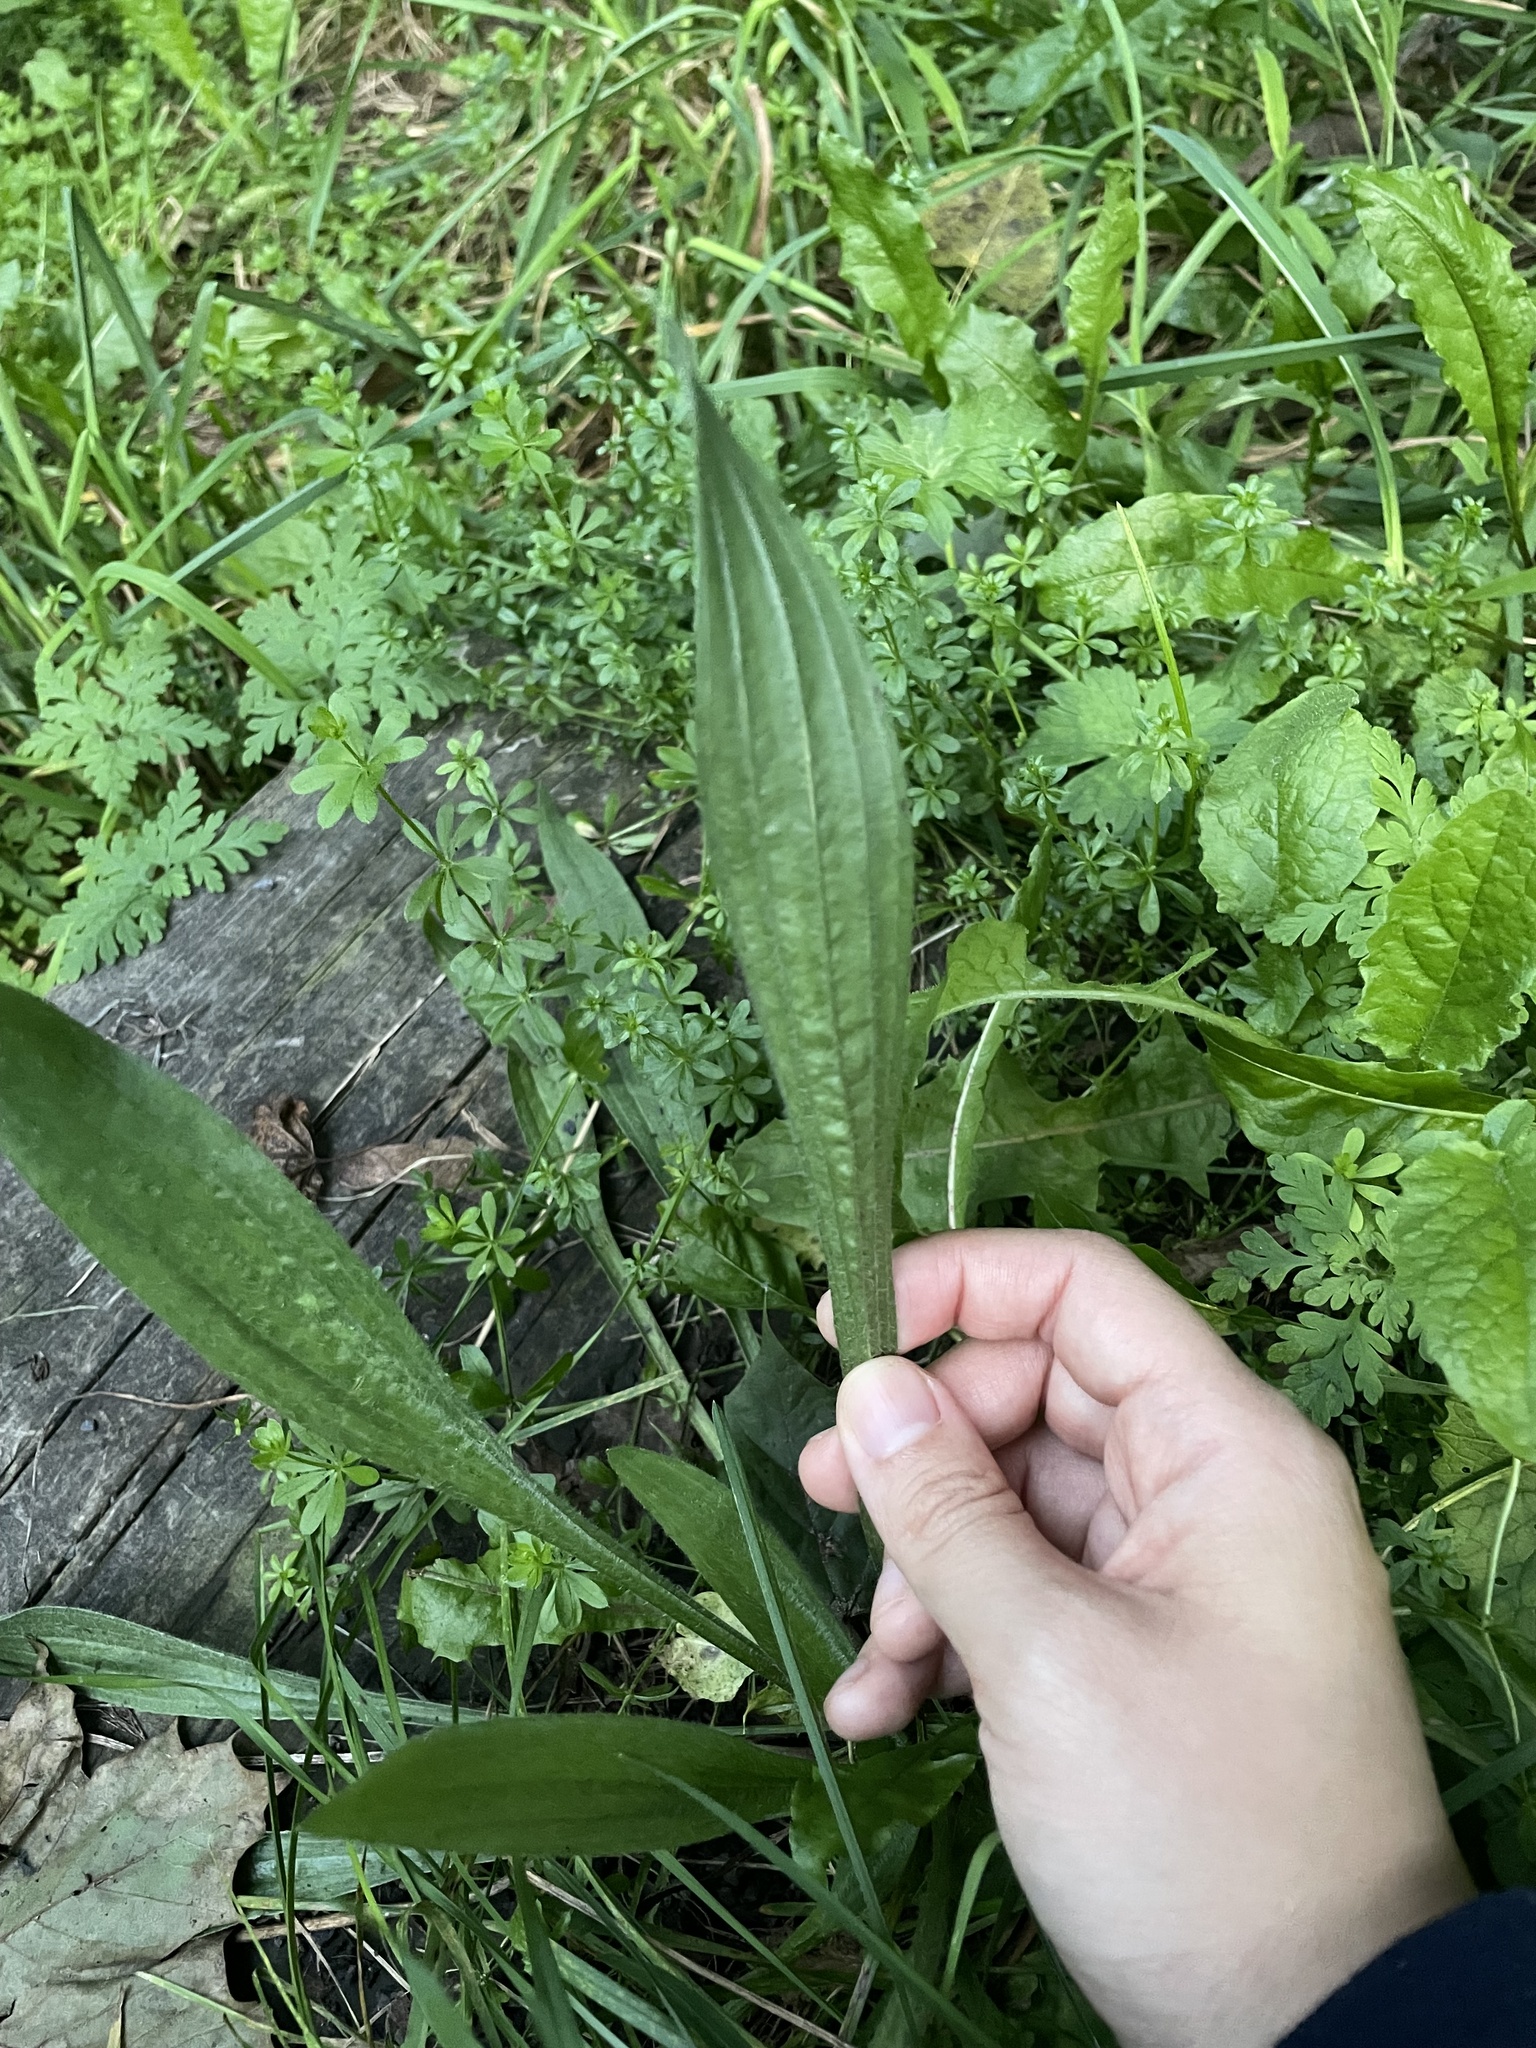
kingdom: Plantae
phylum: Tracheophyta
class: Magnoliopsida
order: Lamiales
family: Plantaginaceae
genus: Plantago
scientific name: Plantago lanceolata
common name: Ribwort plantain
